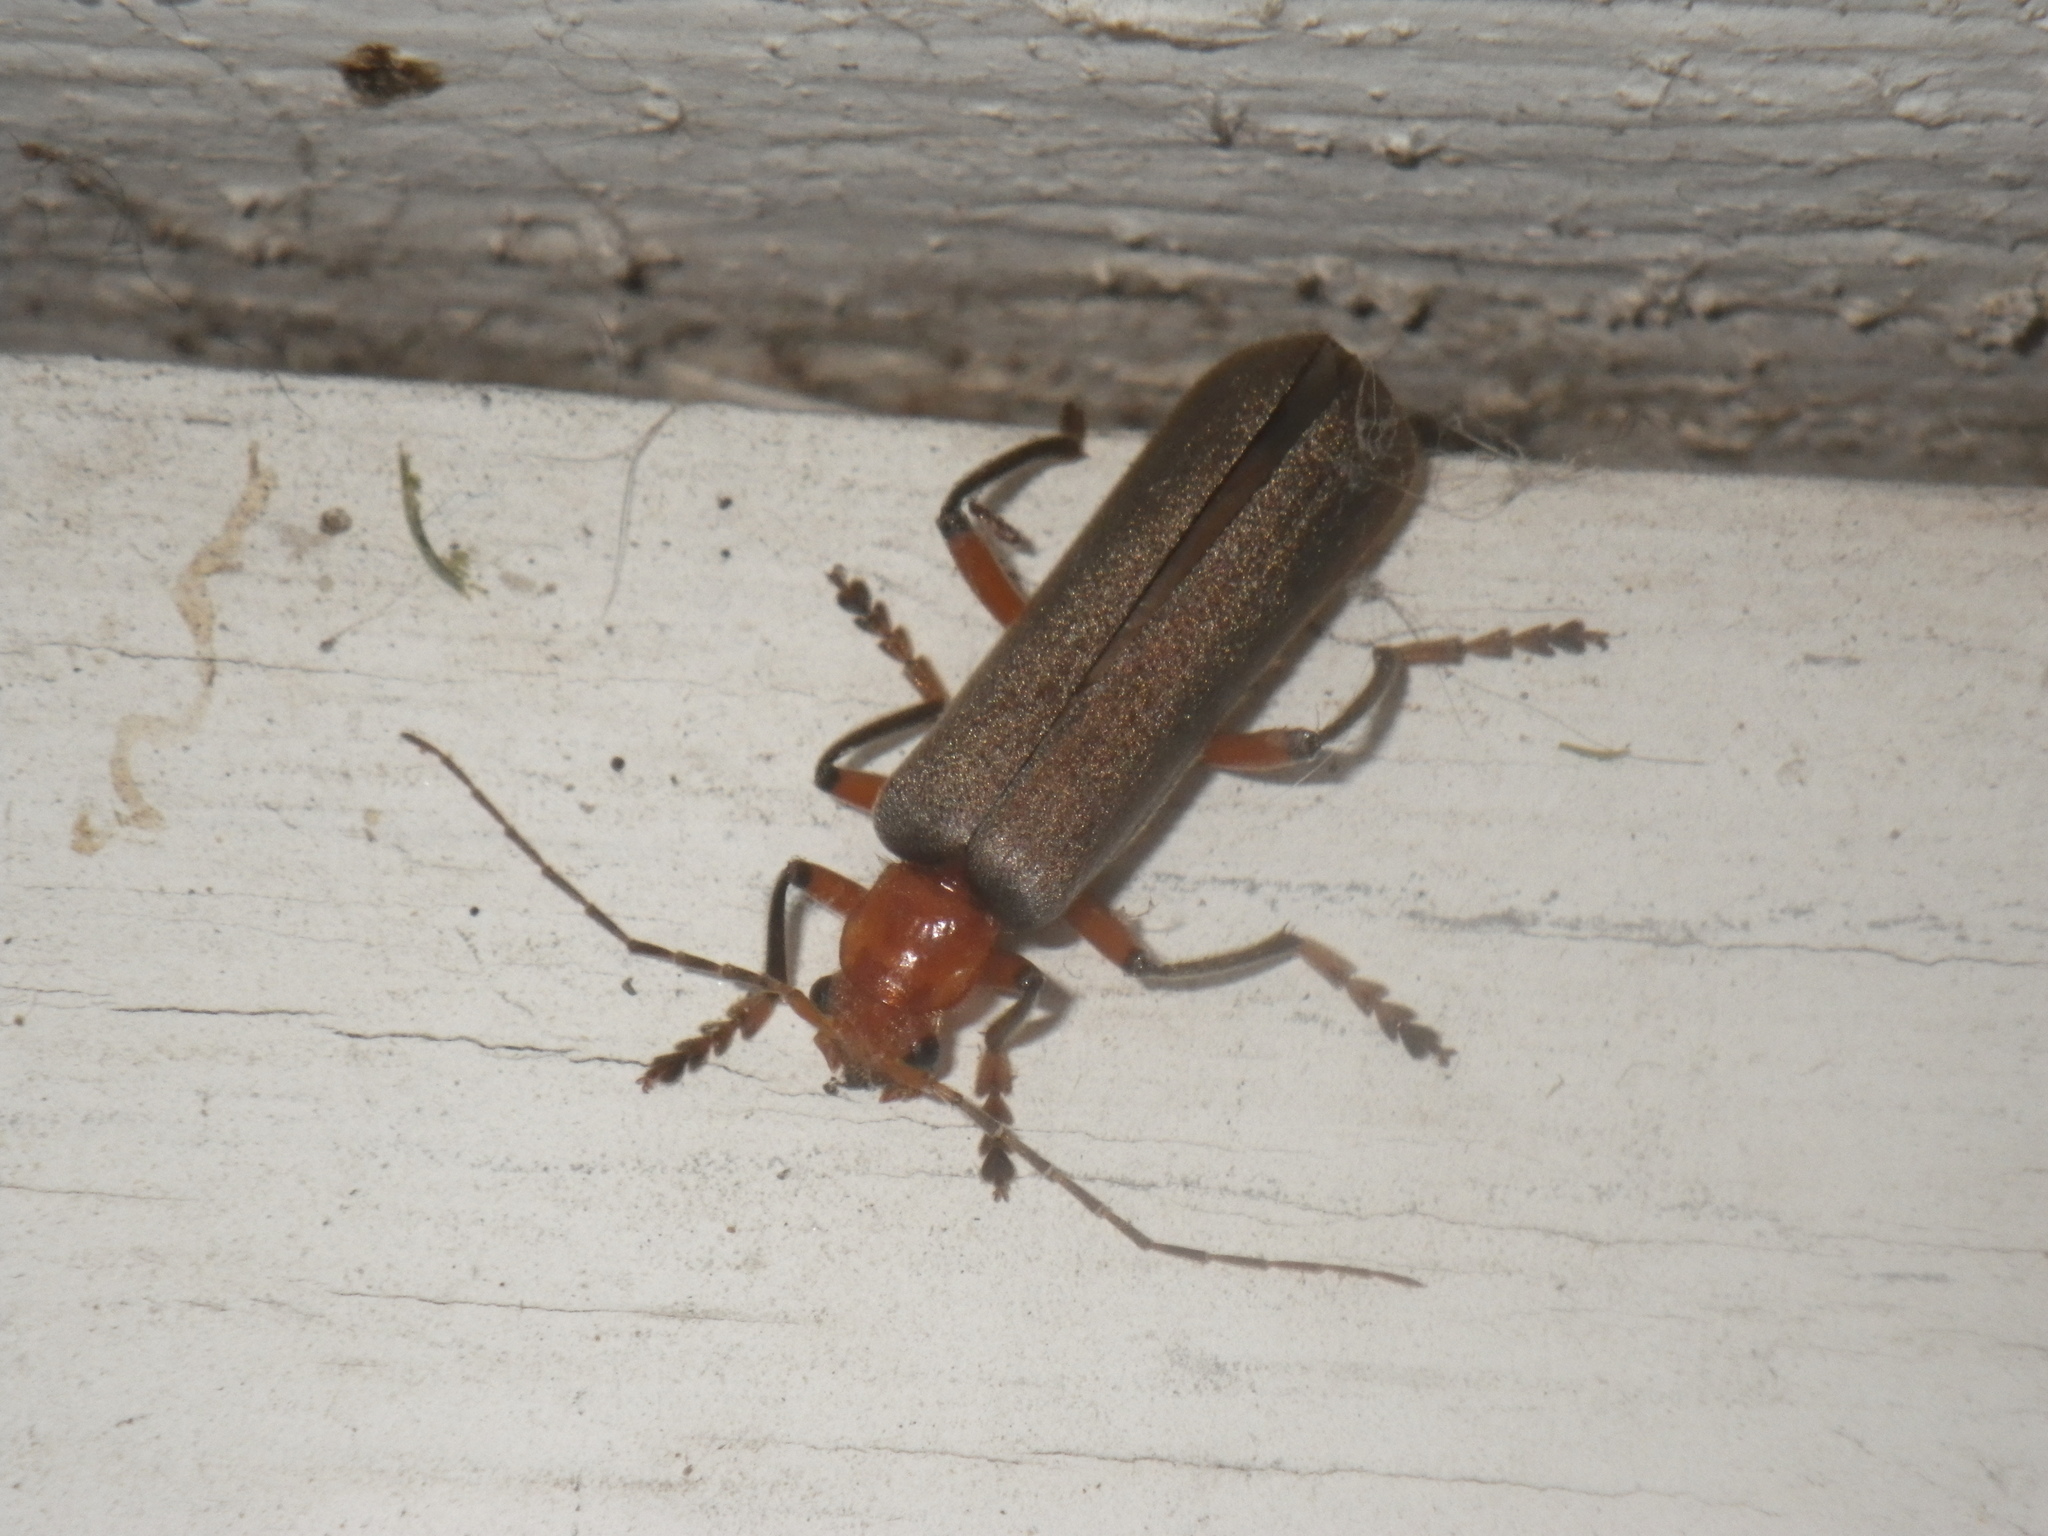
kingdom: Animalia
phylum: Arthropoda
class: Insecta
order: Coleoptera
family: Cantharidae
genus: Pacificanthia
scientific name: Pacificanthia consors
